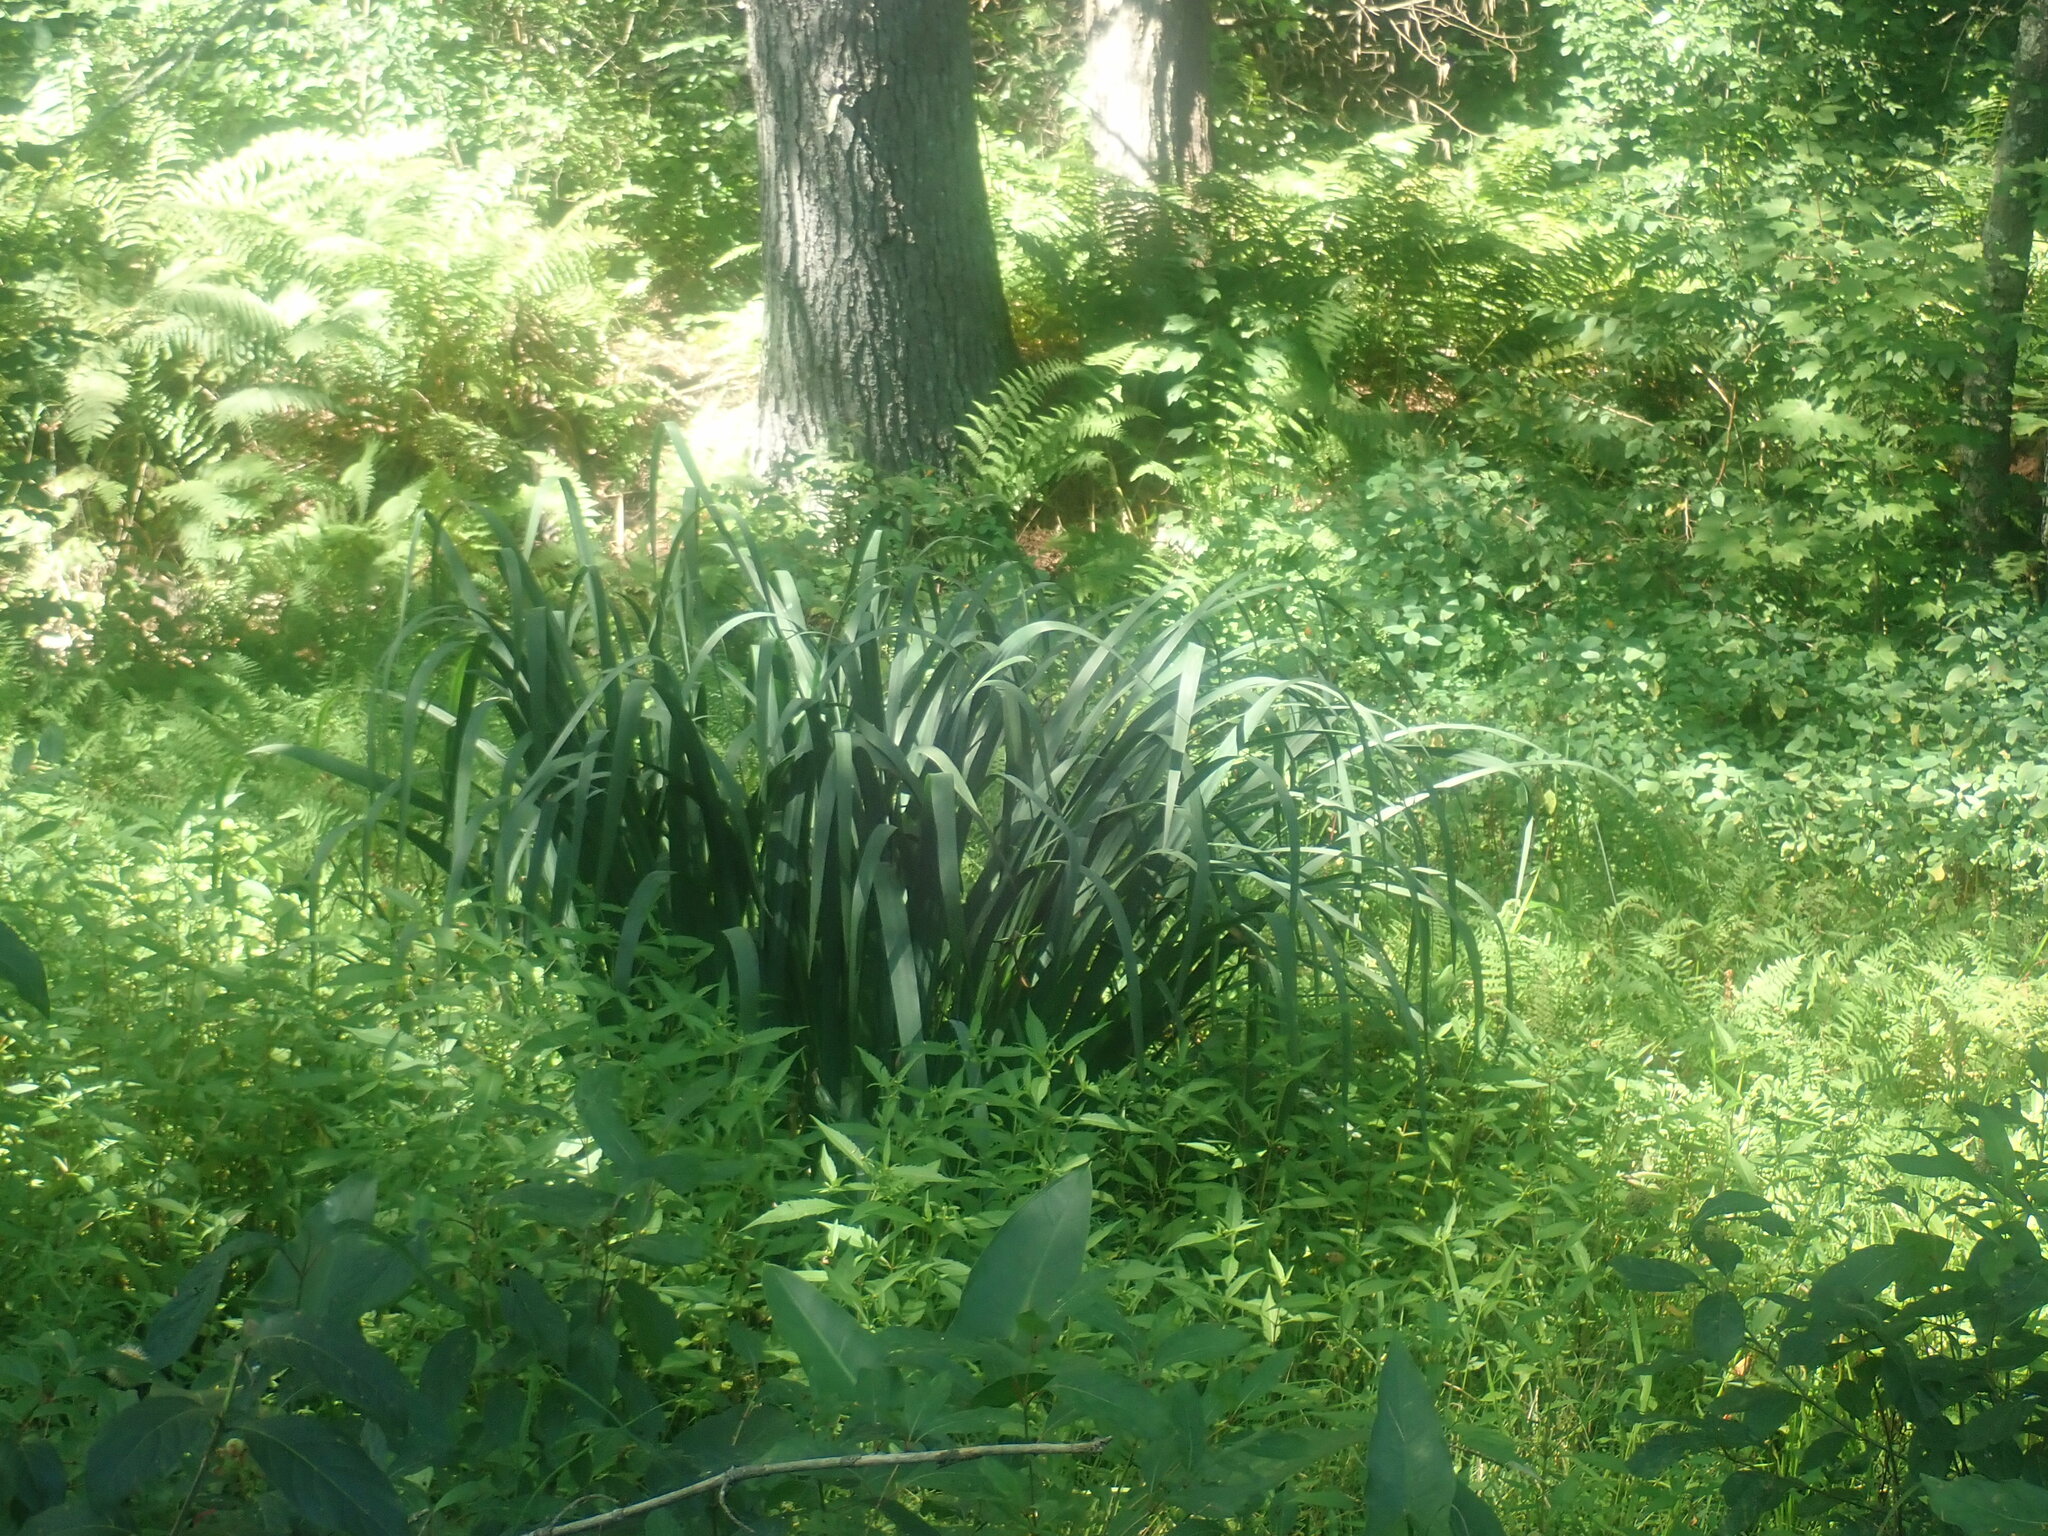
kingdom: Plantae
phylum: Tracheophyta
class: Liliopsida
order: Asparagales
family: Iridaceae
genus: Iris
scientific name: Iris
